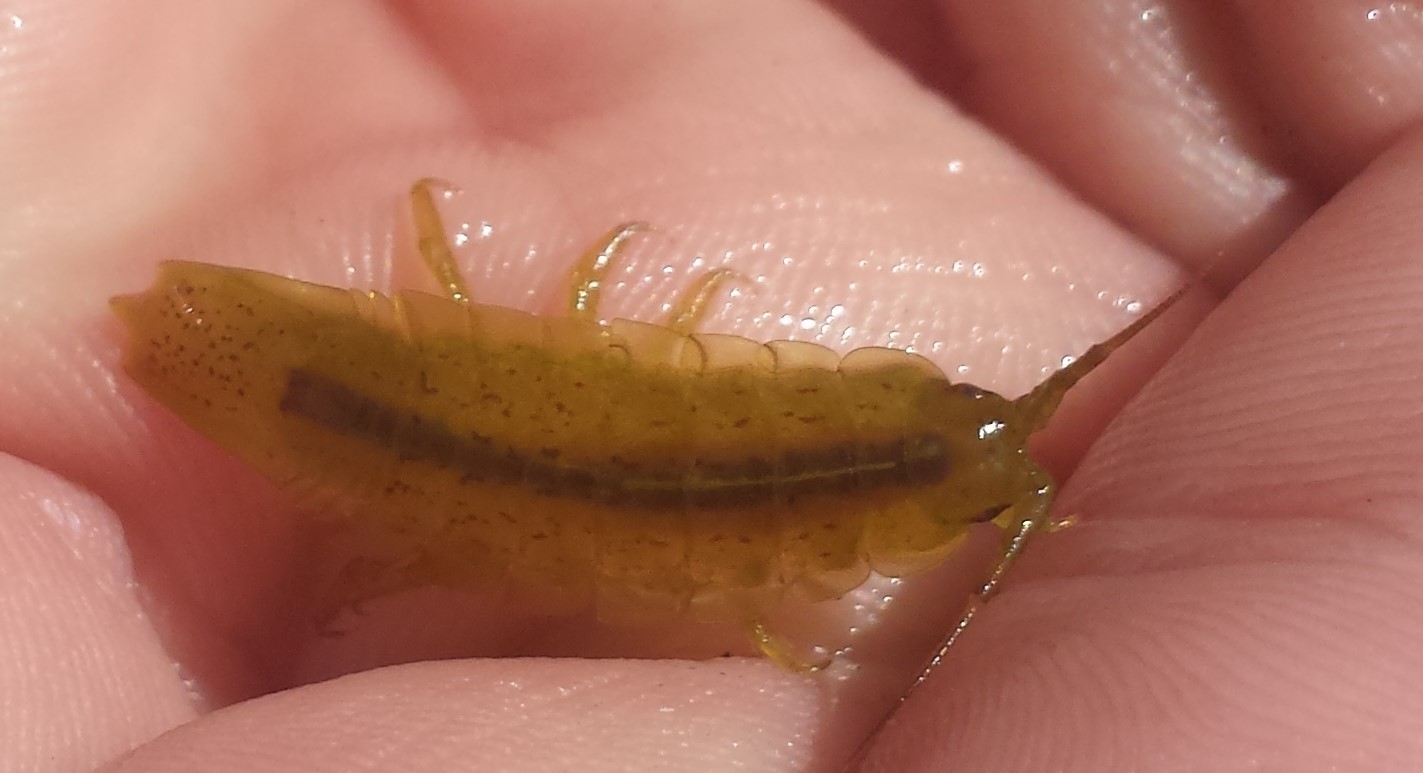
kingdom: Animalia
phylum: Arthropoda
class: Malacostraca
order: Isopoda
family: Idoteidae
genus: Idotea
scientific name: Idotea balthica
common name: Baltic isopod
